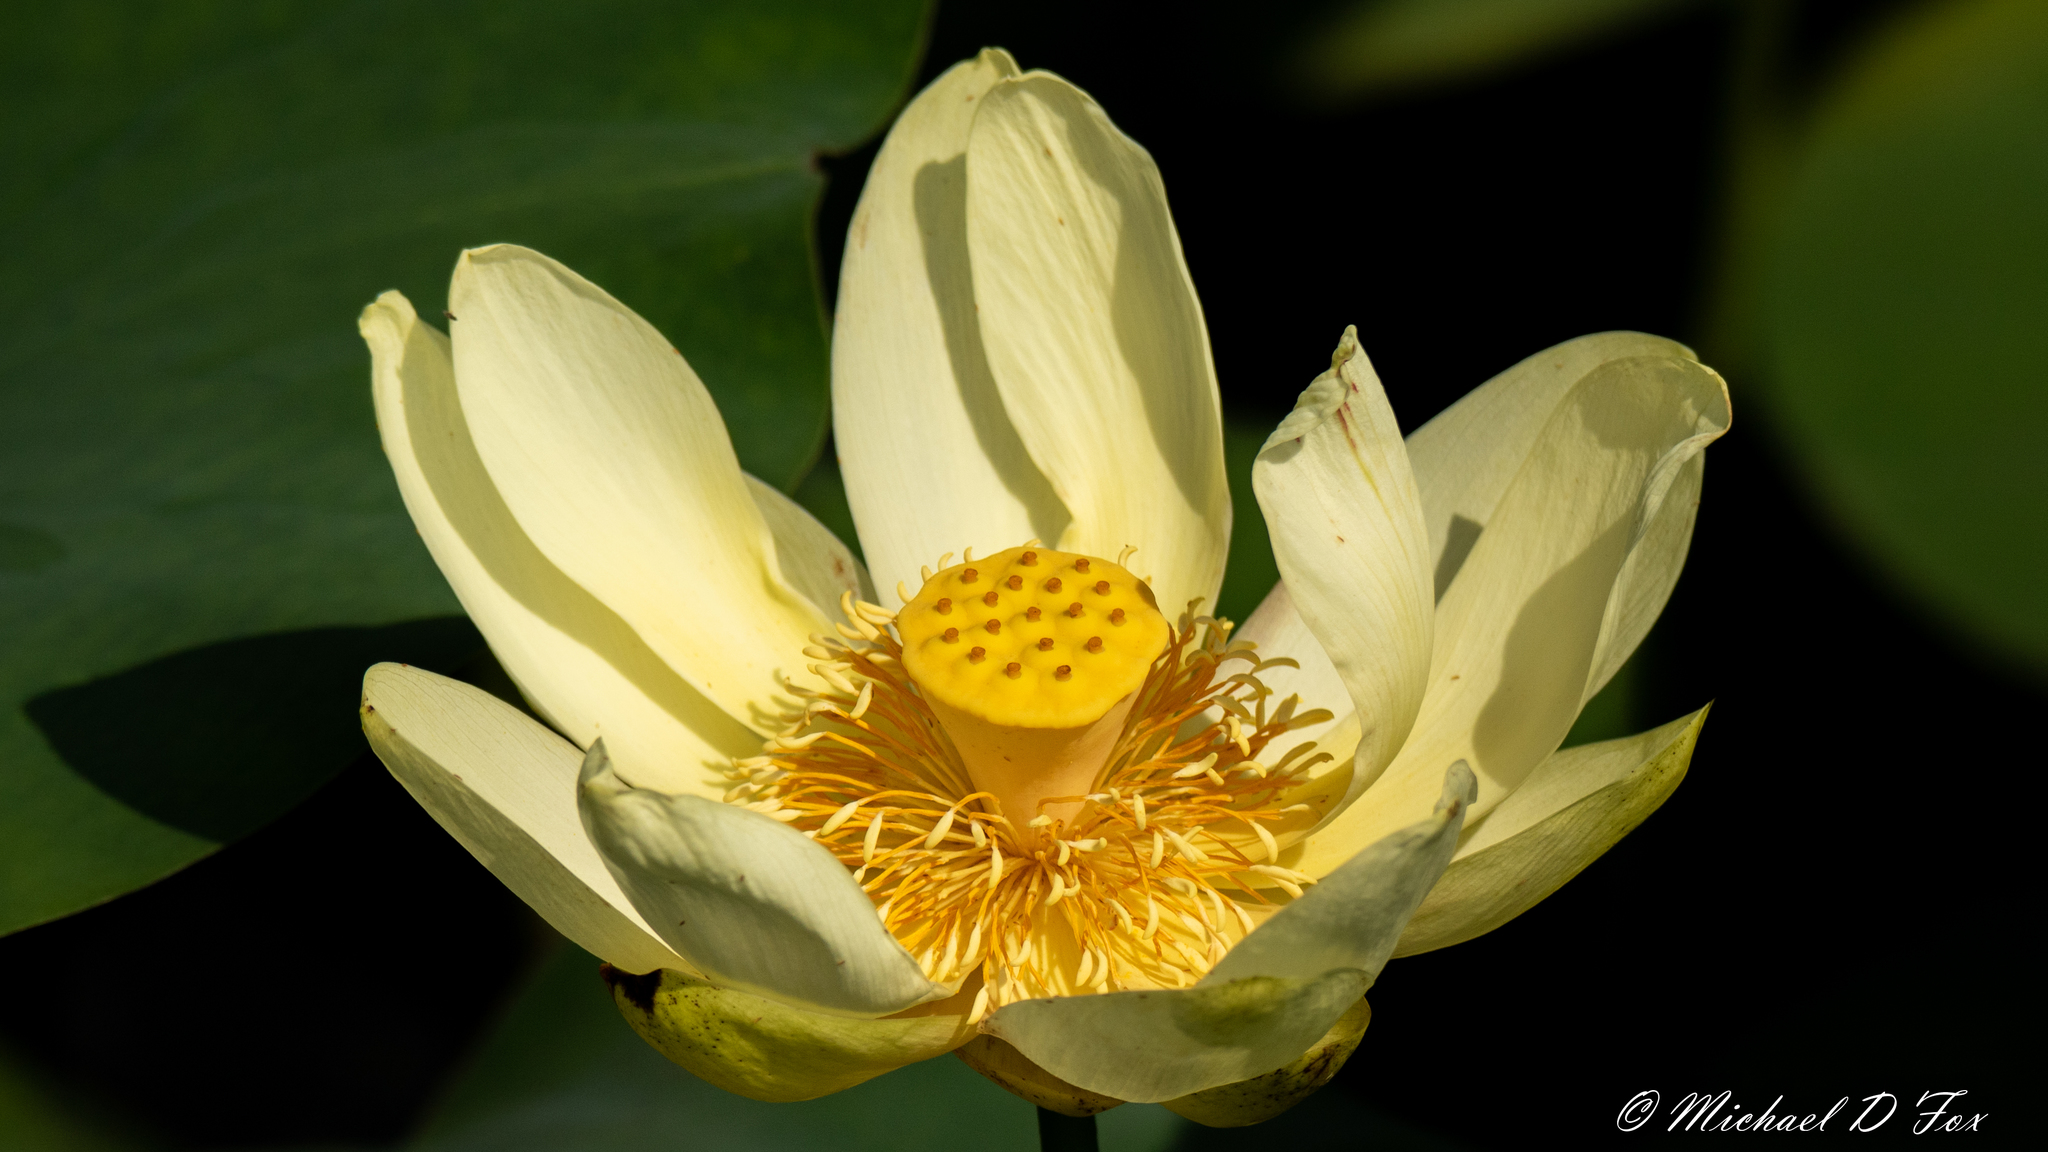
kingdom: Plantae
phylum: Tracheophyta
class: Magnoliopsida
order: Proteales
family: Nelumbonaceae
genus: Nelumbo
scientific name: Nelumbo lutea
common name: American lotus
